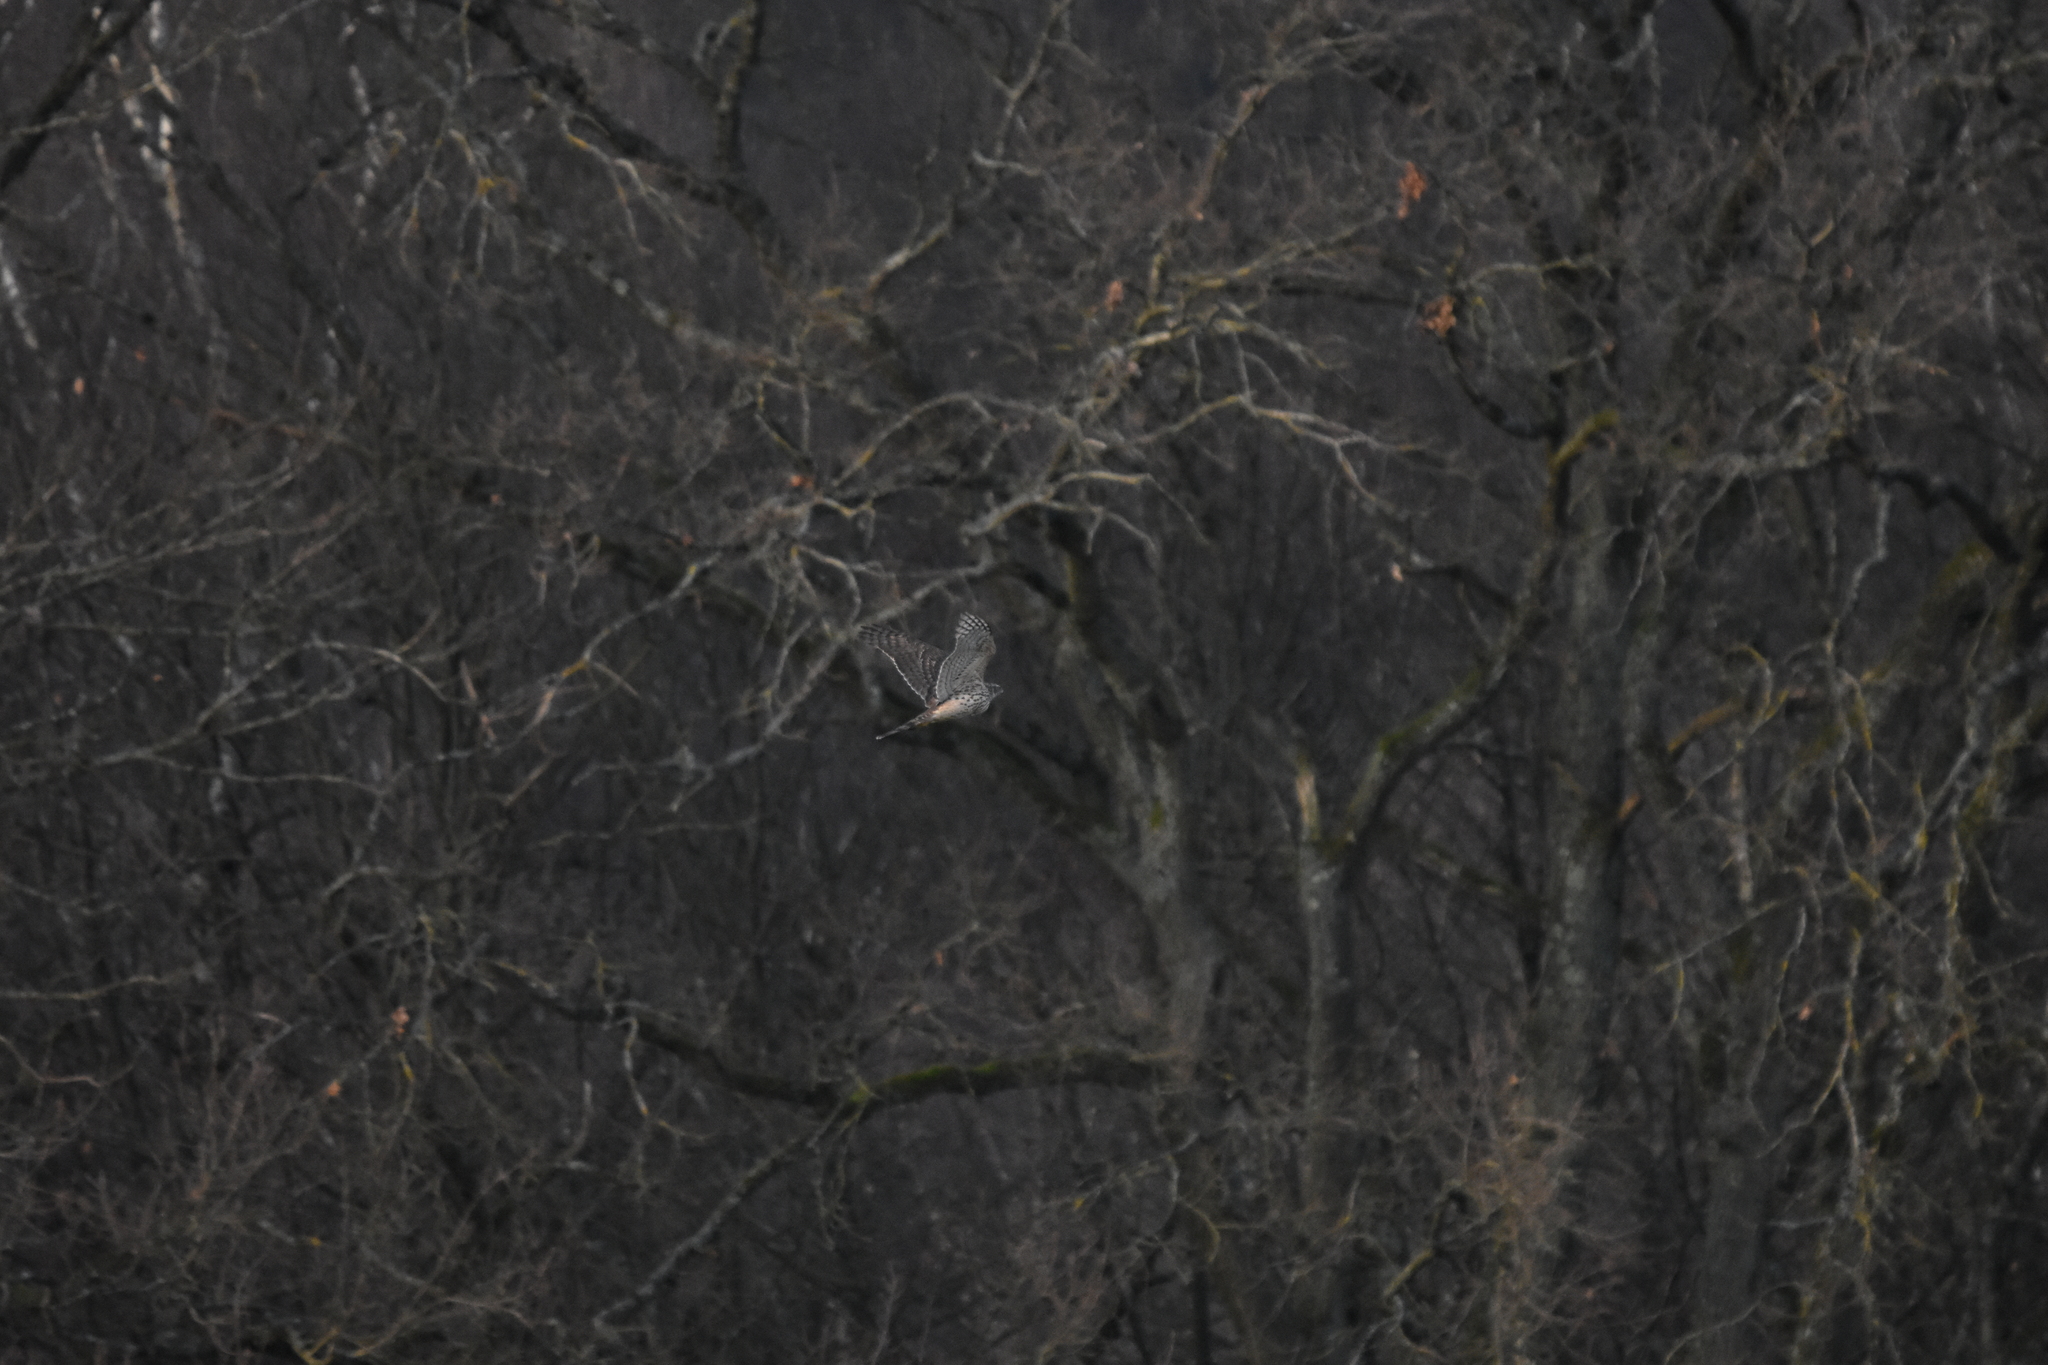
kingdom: Animalia
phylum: Chordata
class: Aves
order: Accipitriformes
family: Accipitridae
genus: Accipiter
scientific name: Accipiter gentilis
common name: Northern goshawk
